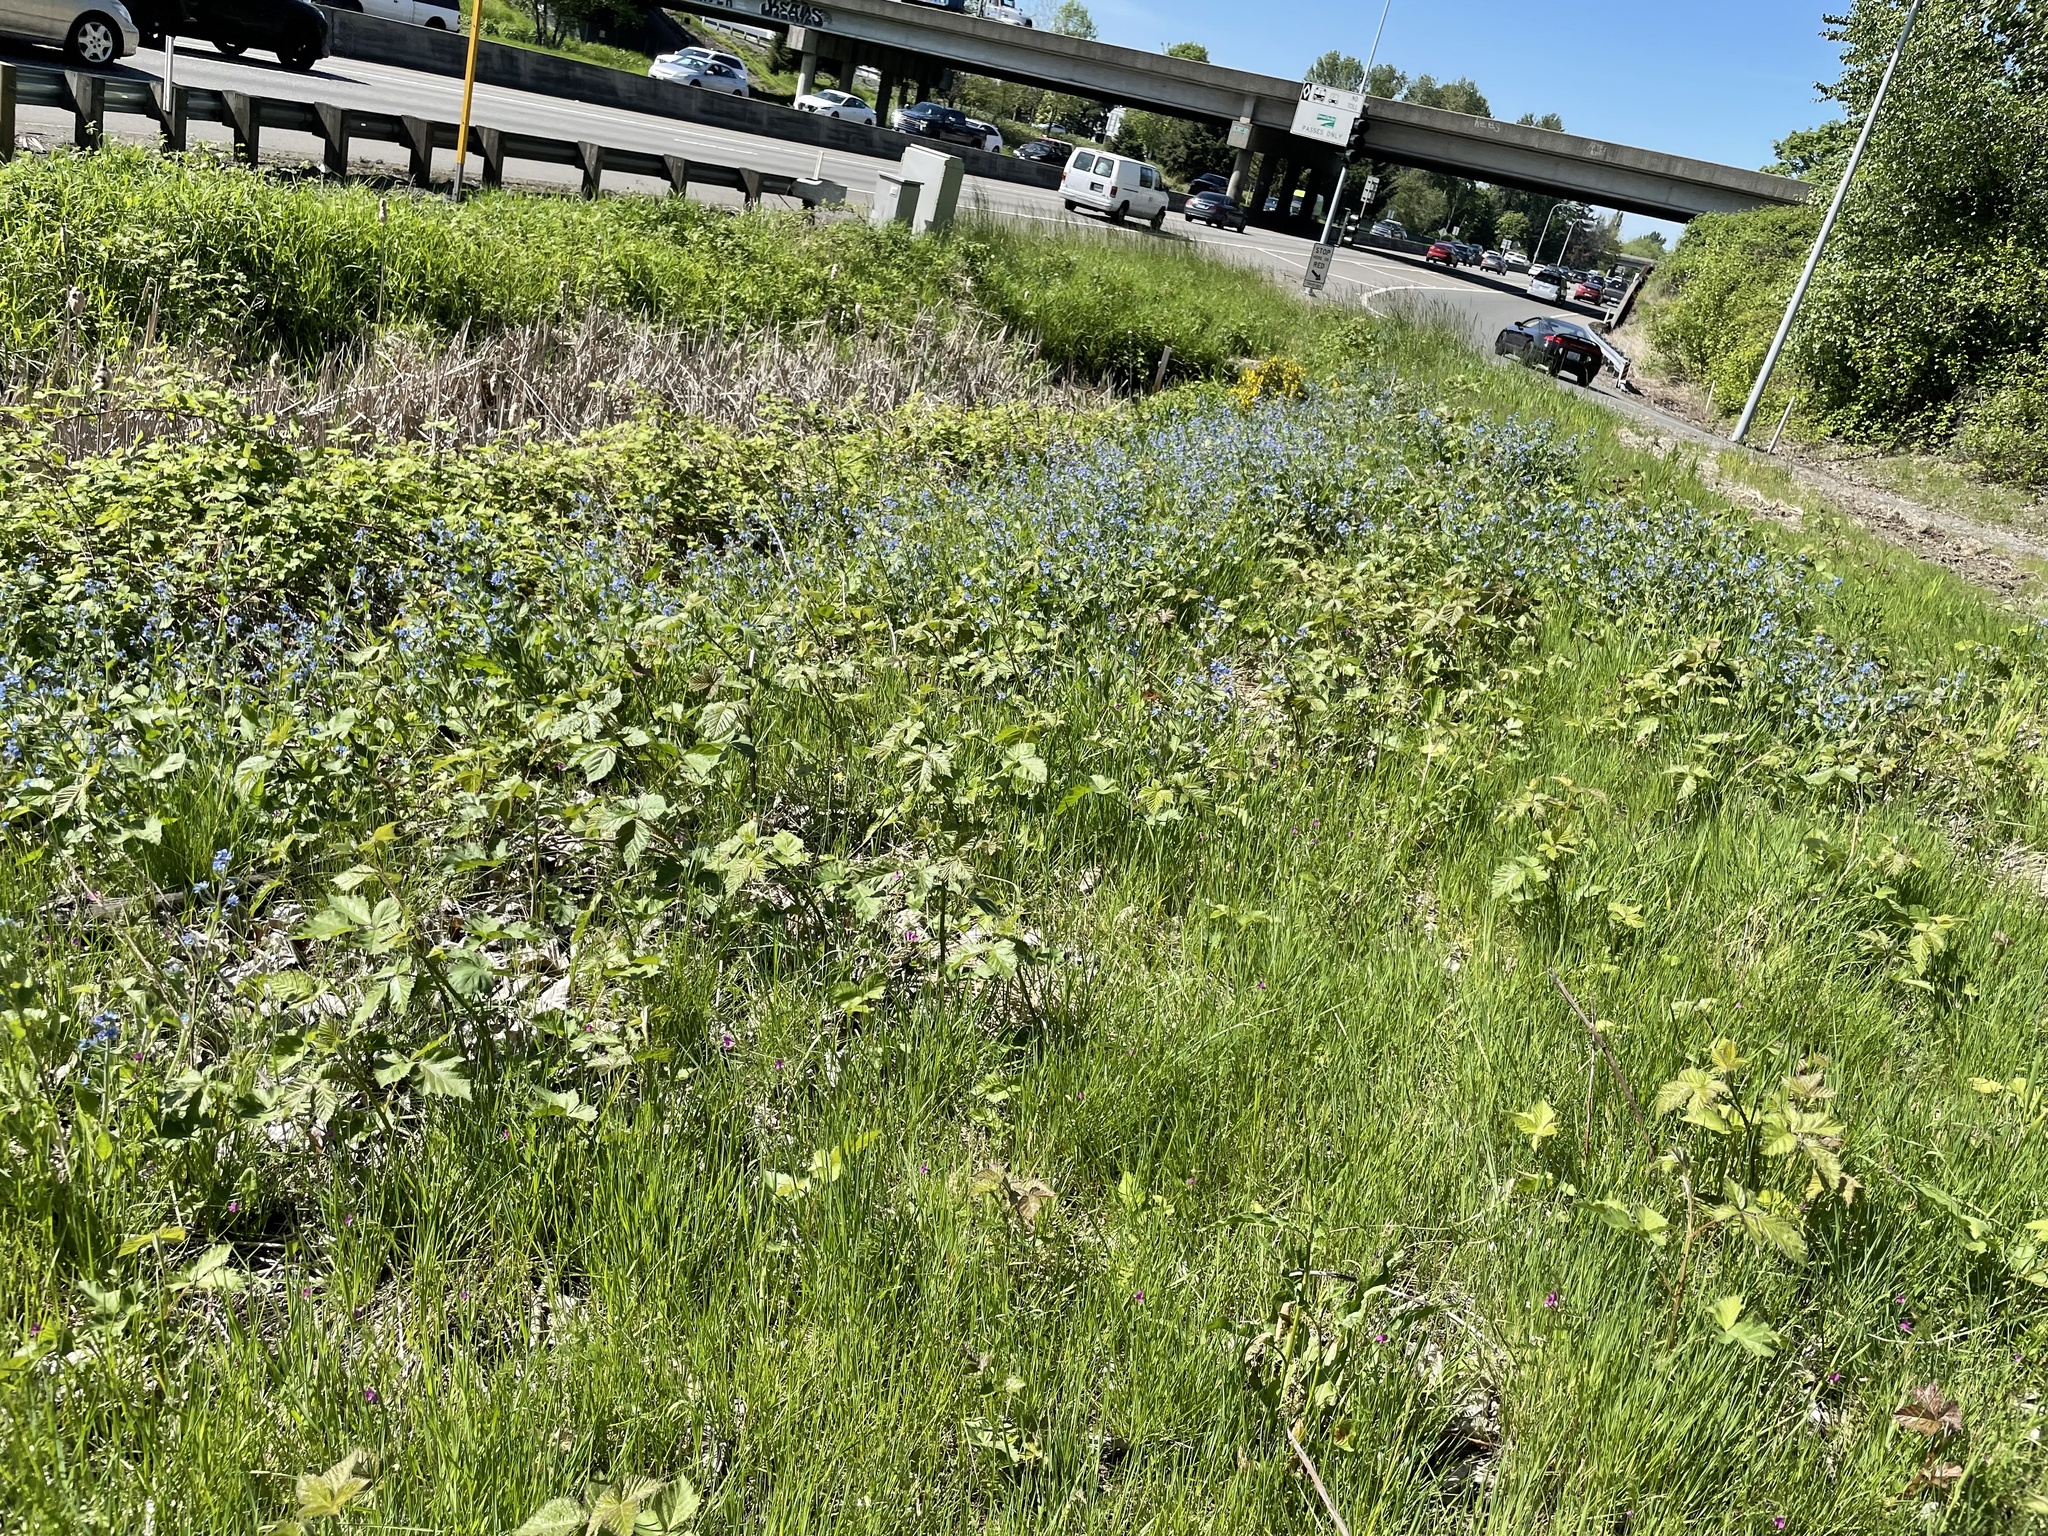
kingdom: Plantae
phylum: Tracheophyta
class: Magnoliopsida
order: Boraginales
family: Boraginaceae
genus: Pentaglottis
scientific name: Pentaglottis sempervirens
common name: Green alkanet
